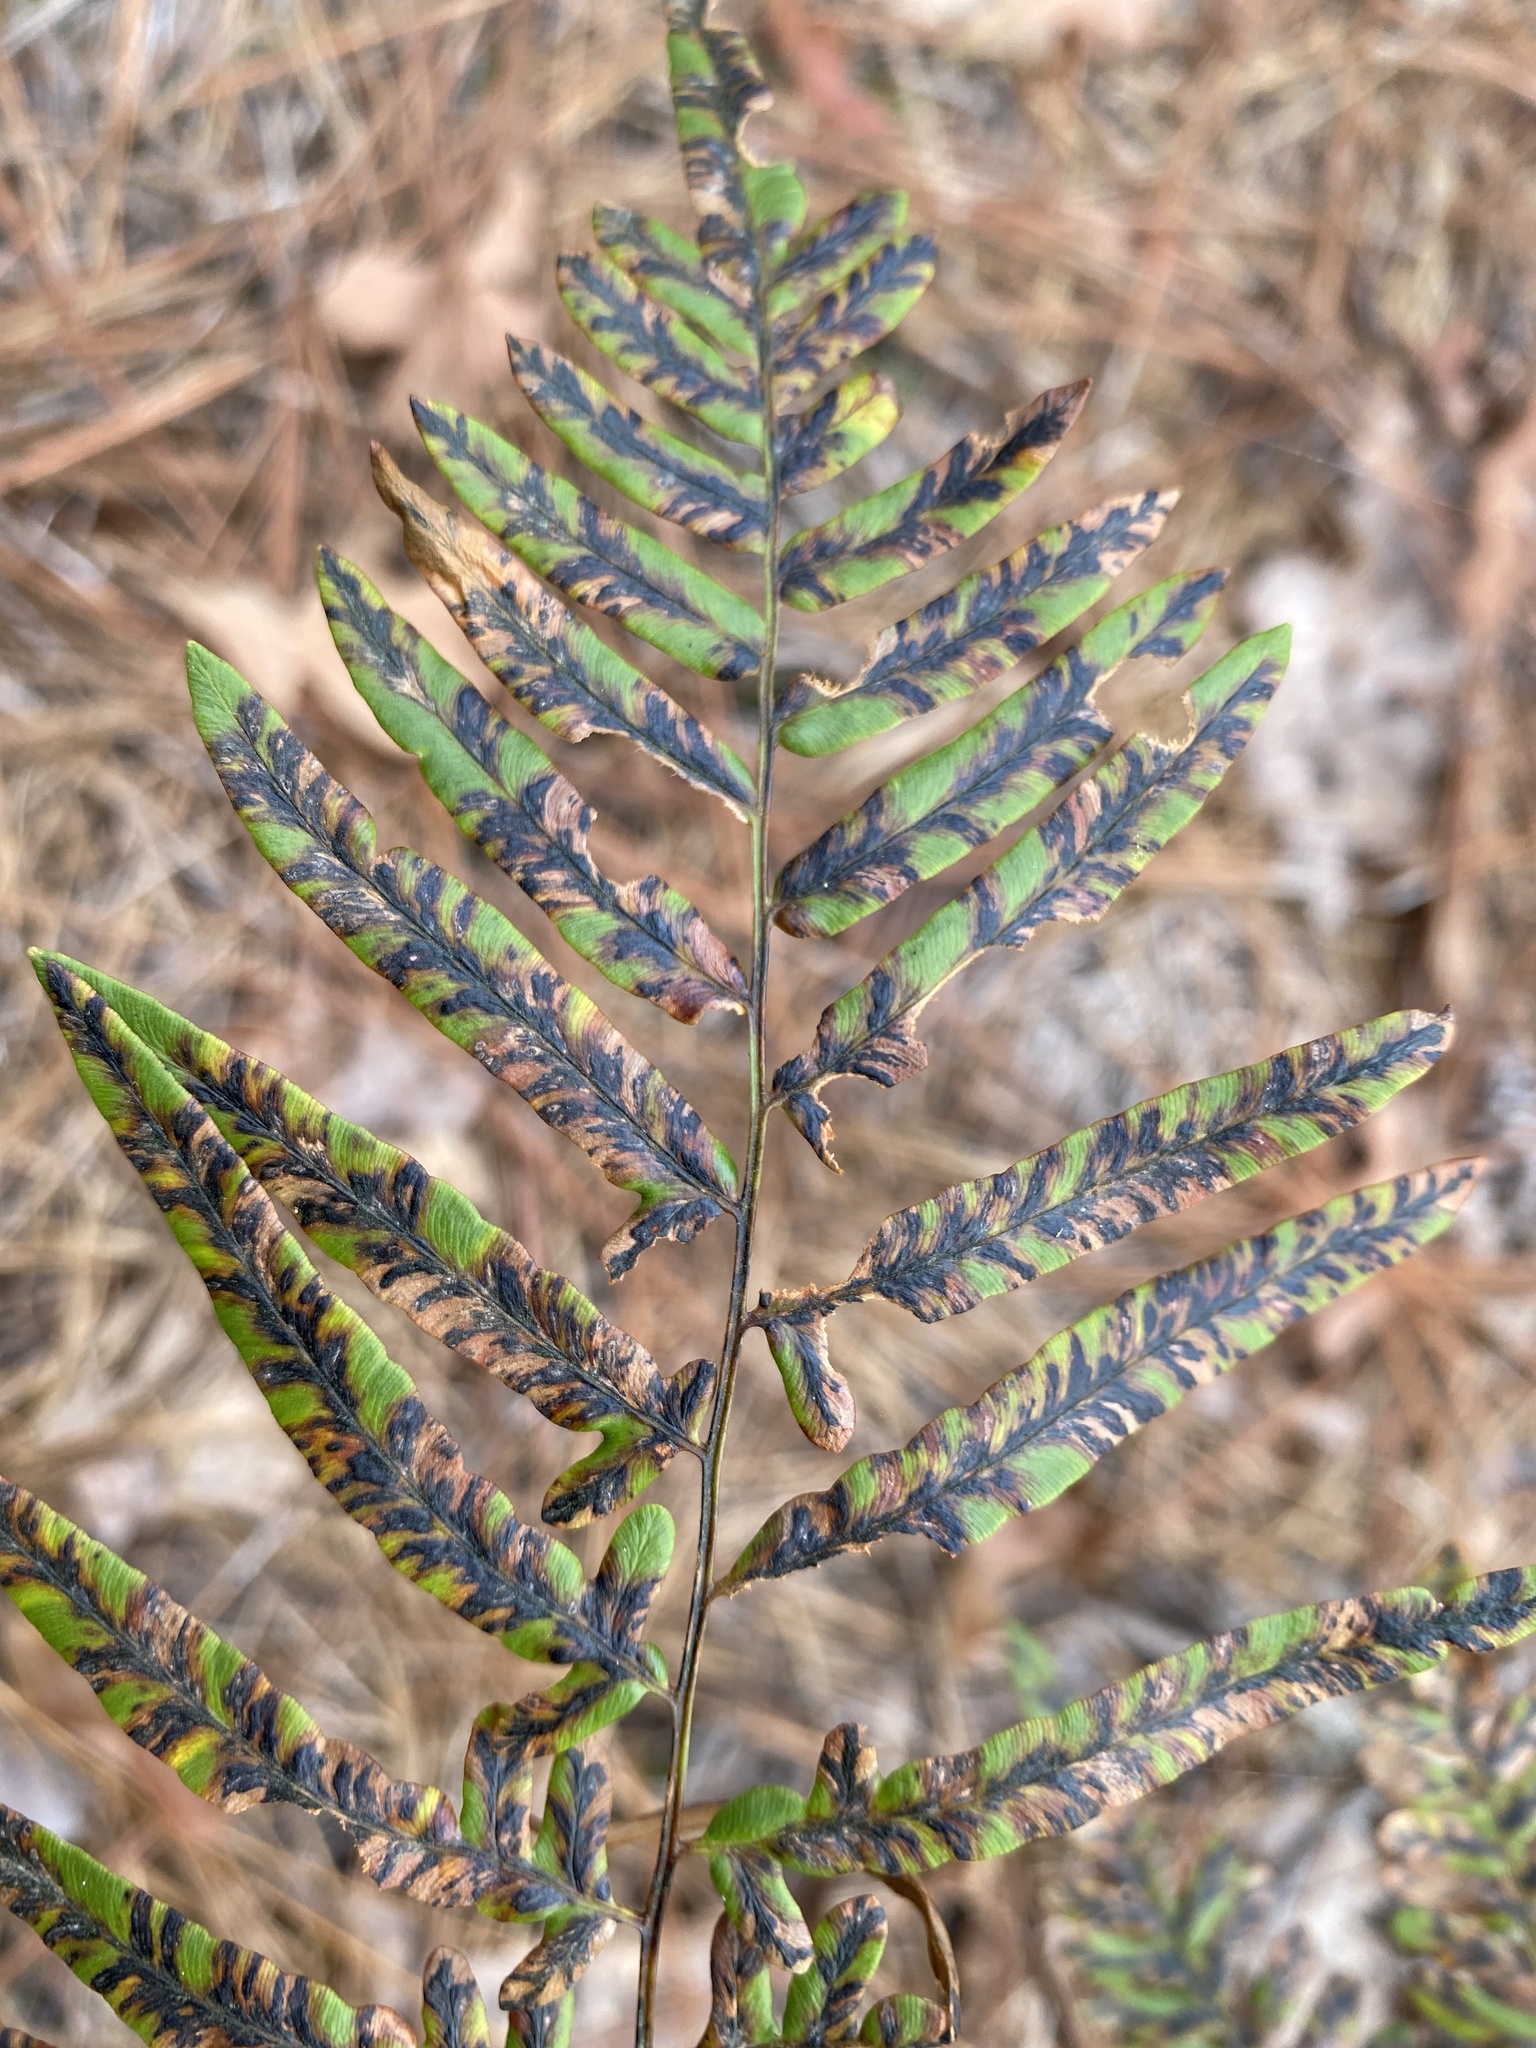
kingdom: Plantae
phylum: Tracheophyta
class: Polypodiopsida
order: Polypodiales
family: Dennstaedtiaceae
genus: Pteridium
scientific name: Pteridium
